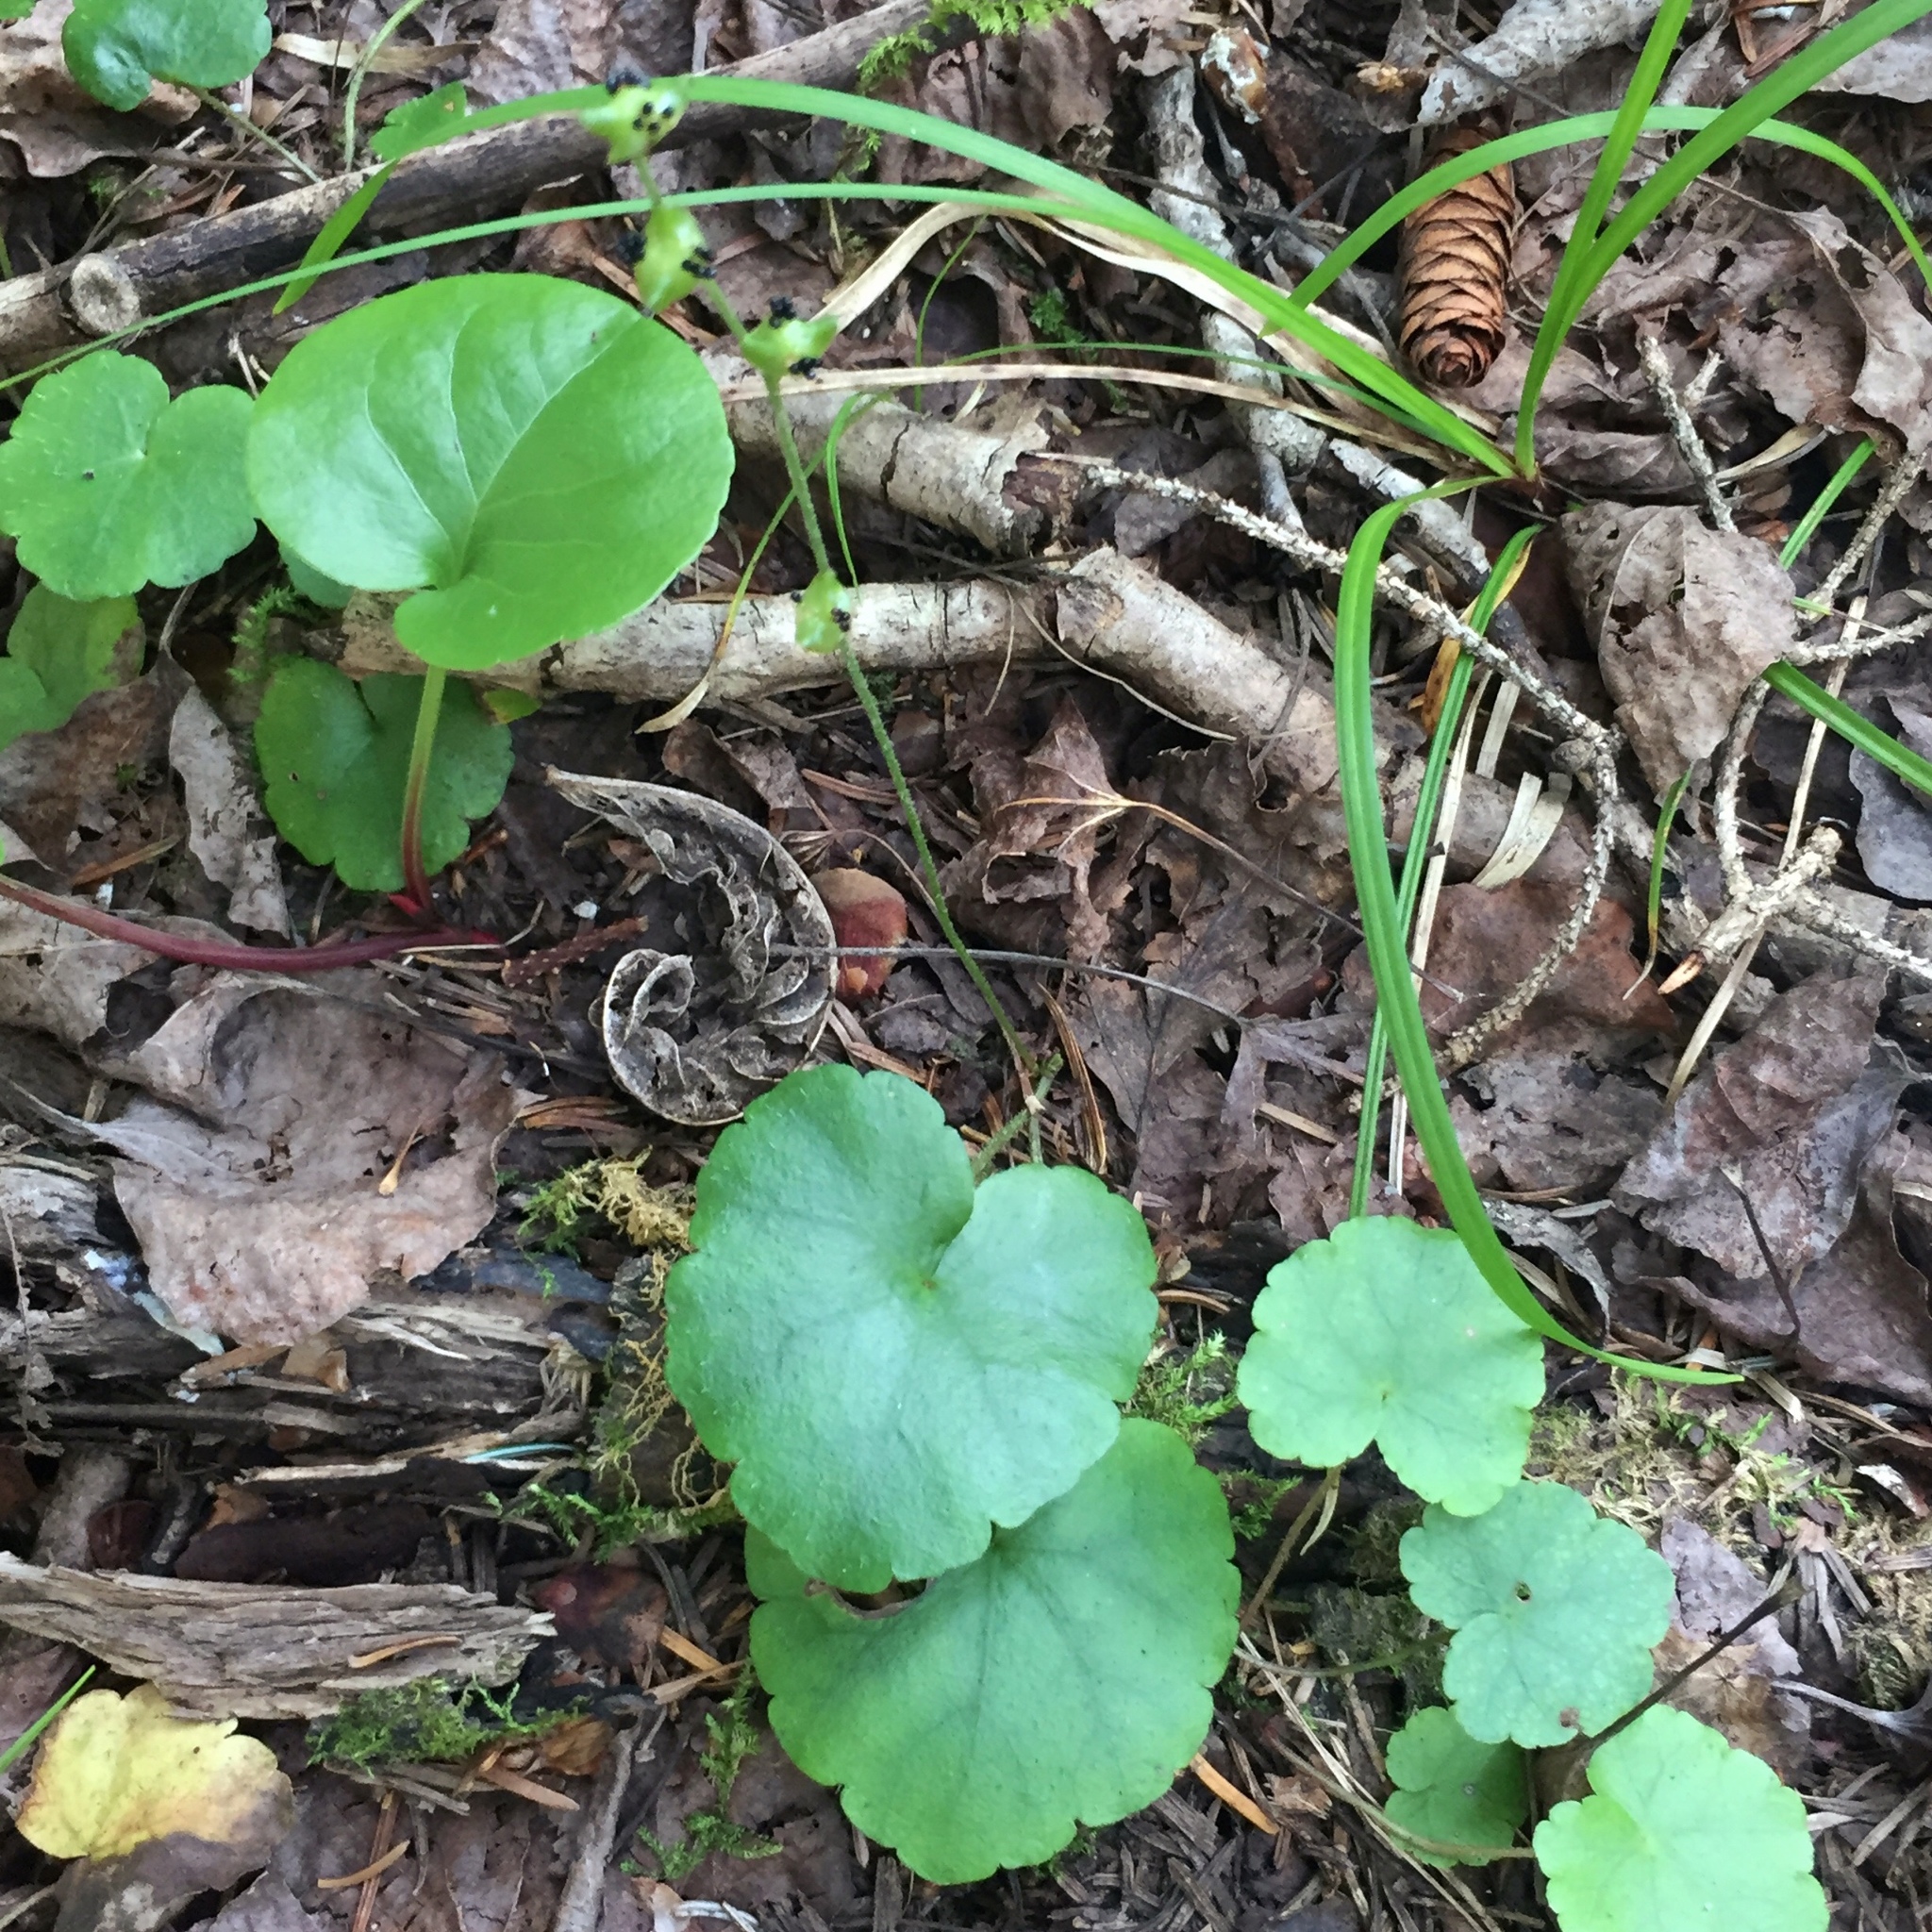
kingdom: Plantae
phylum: Tracheophyta
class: Magnoliopsida
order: Saxifragales
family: Saxifragaceae
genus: Mitella
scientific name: Mitella nuda
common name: Bare-stemmed bishop's-cap
